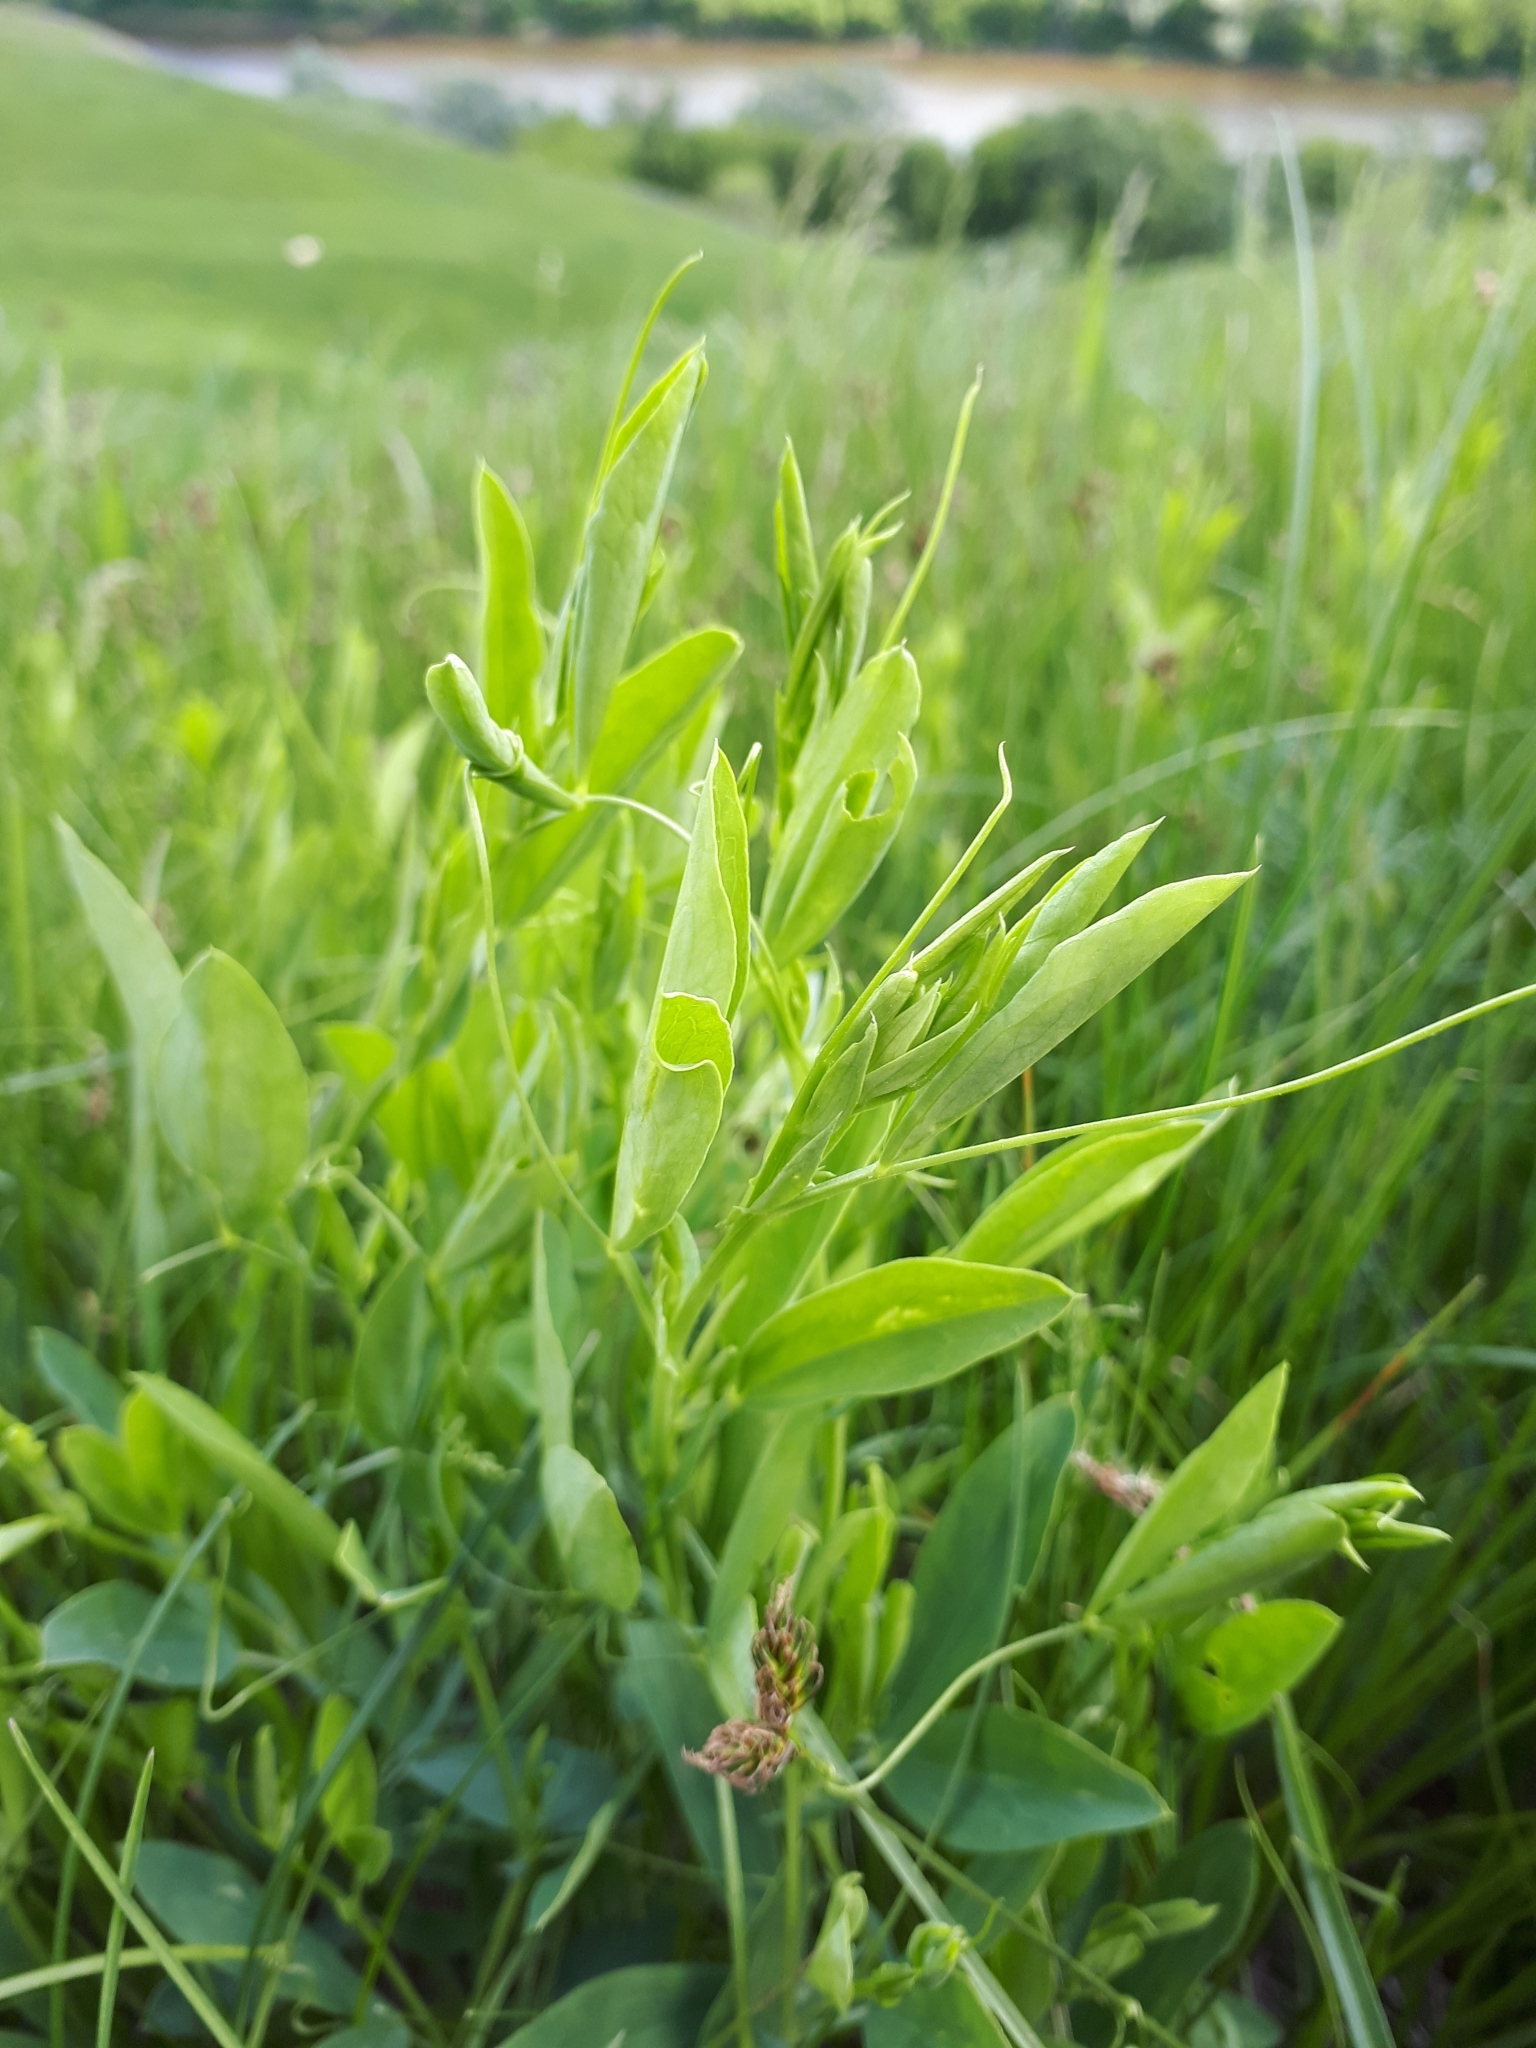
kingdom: Plantae
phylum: Tracheophyta
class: Magnoliopsida
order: Fabales
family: Fabaceae
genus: Lathyrus
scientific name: Lathyrus tuberosus
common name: Tuberous pea
